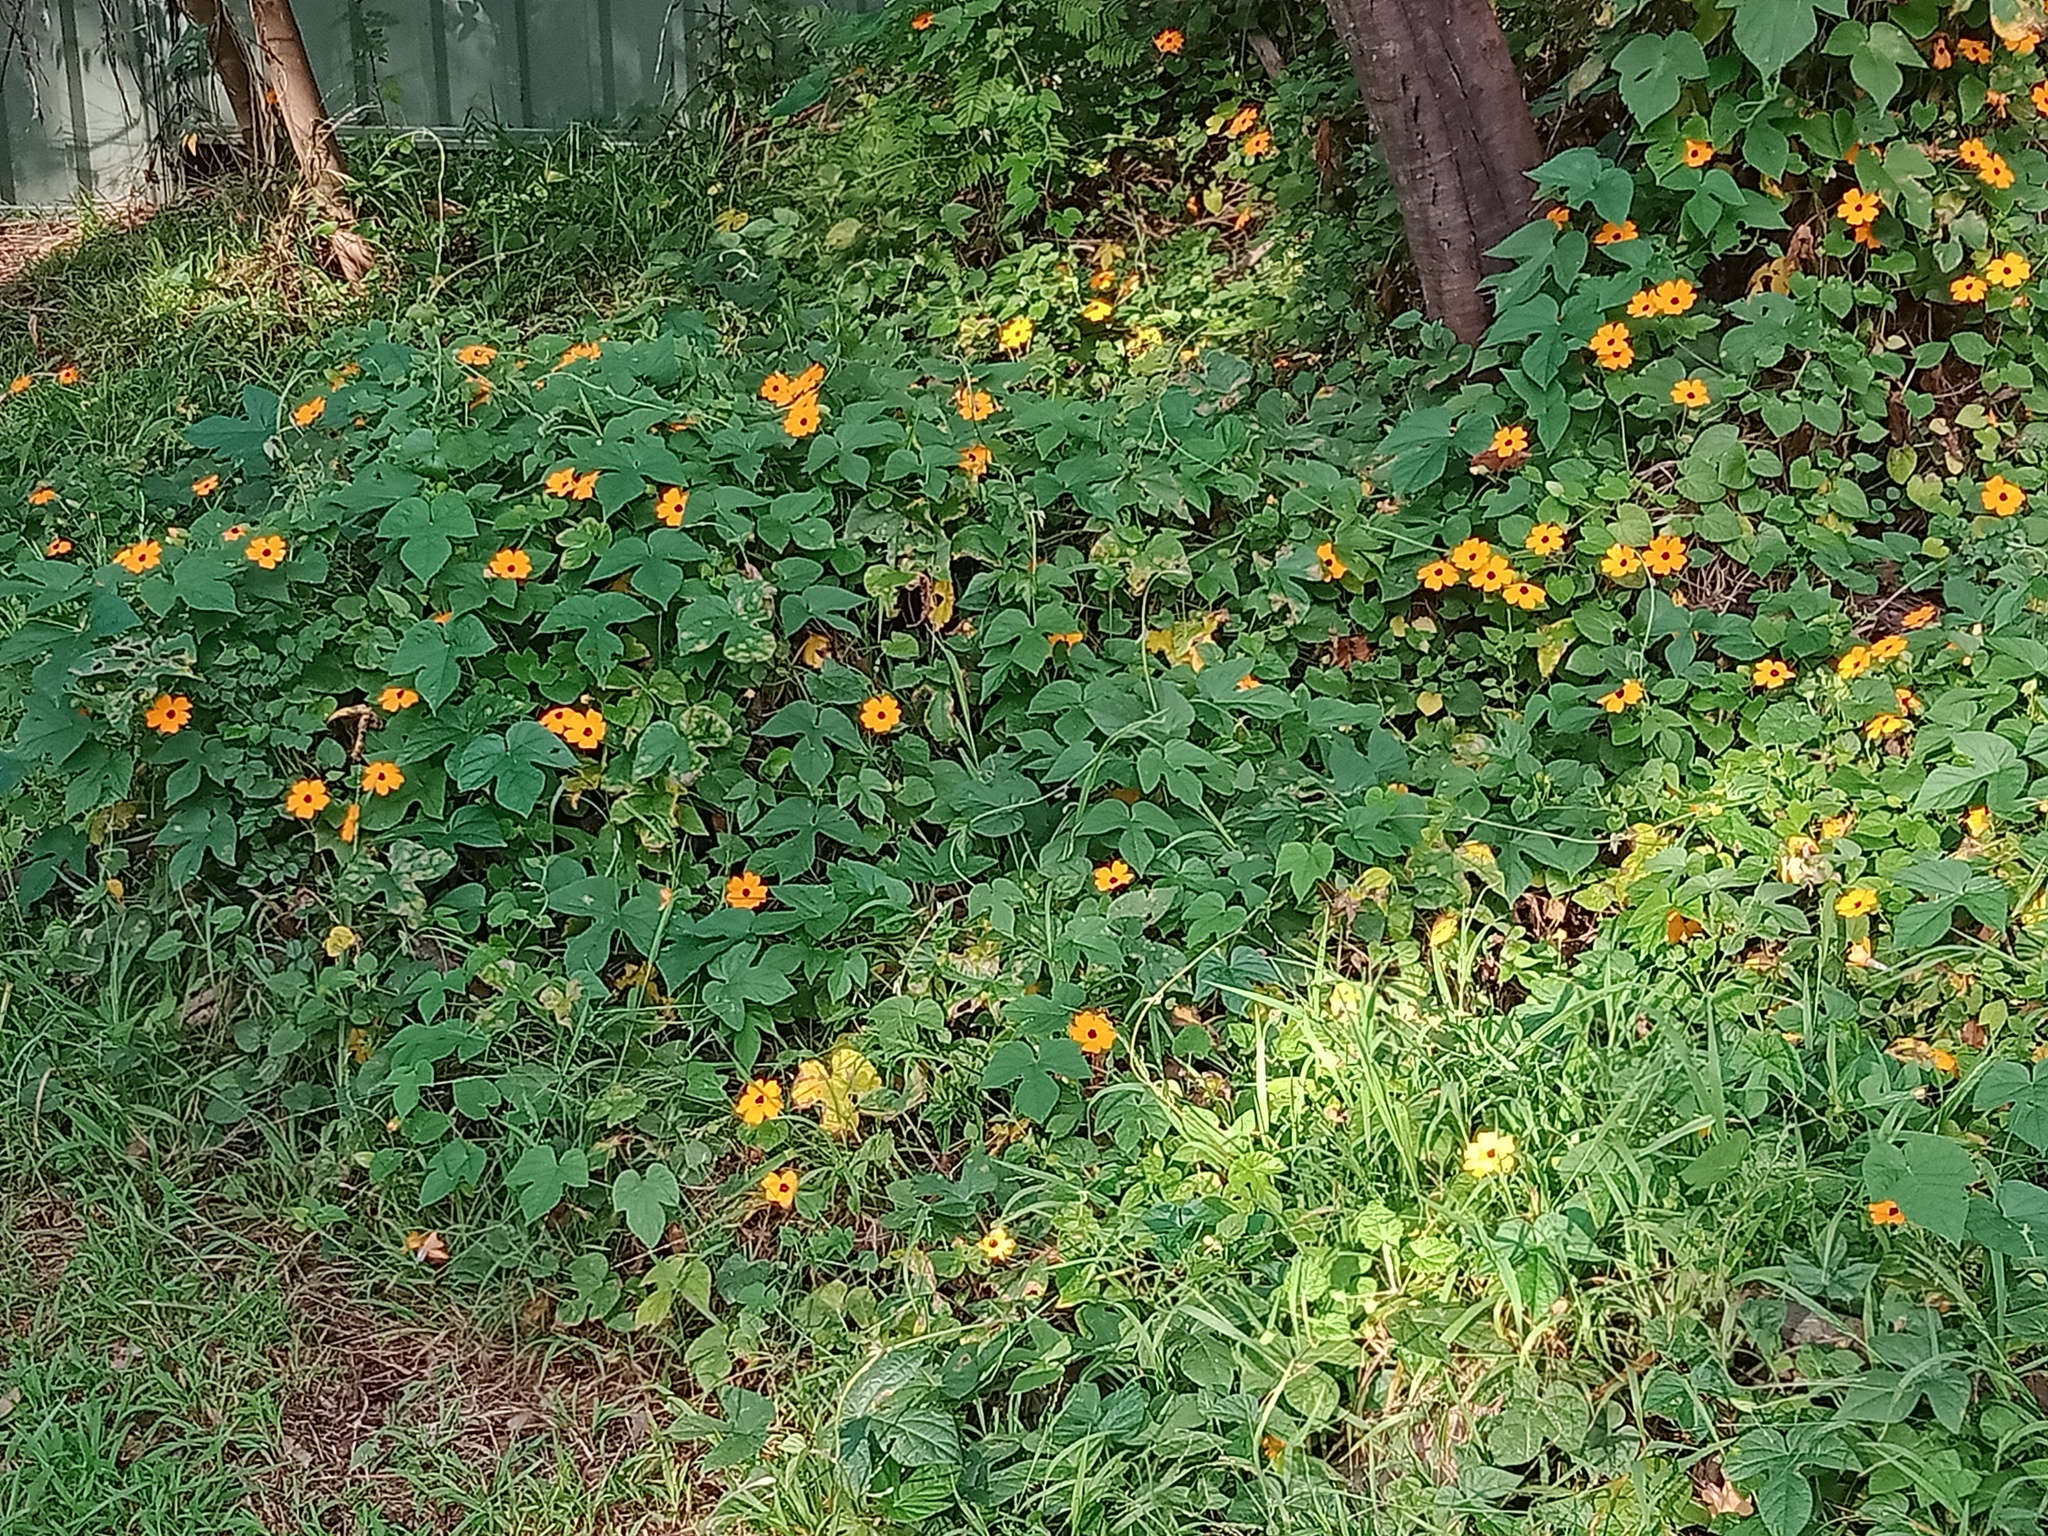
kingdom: Plantae
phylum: Tracheophyta
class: Magnoliopsida
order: Lamiales
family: Acanthaceae
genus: Thunbergia
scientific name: Thunbergia alata
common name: Blackeyed susan vine
